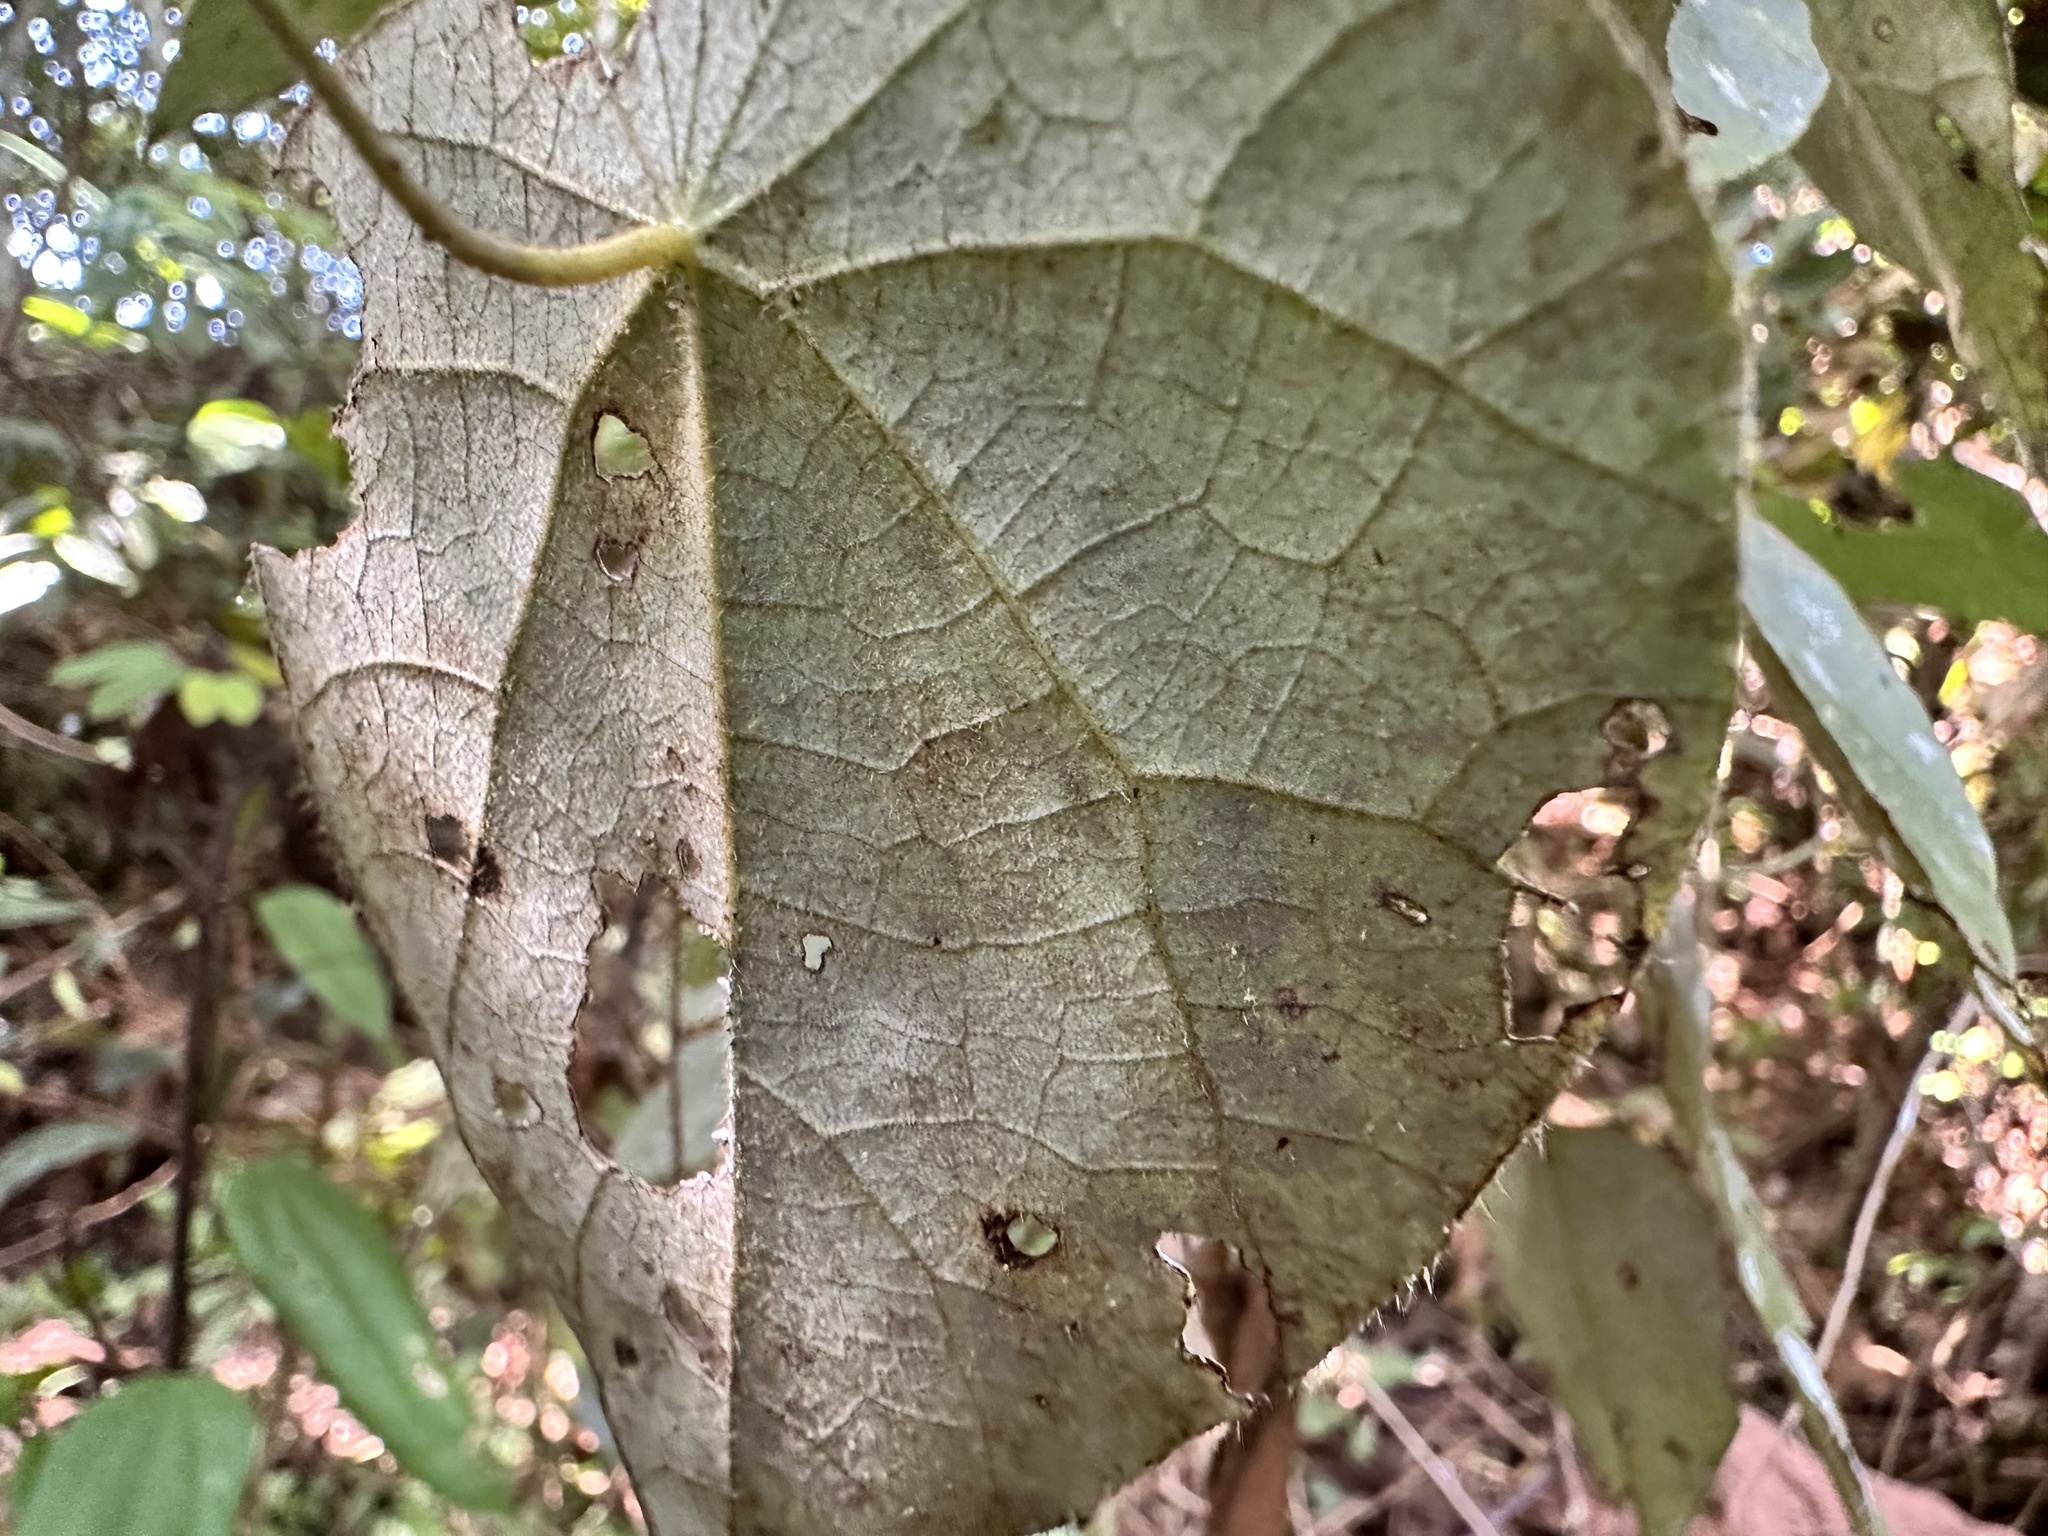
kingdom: Plantae
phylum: Tracheophyta
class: Magnoliopsida
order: Ranunculales
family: Menispermaceae
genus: Cyclea
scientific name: Cyclea laxiflora
